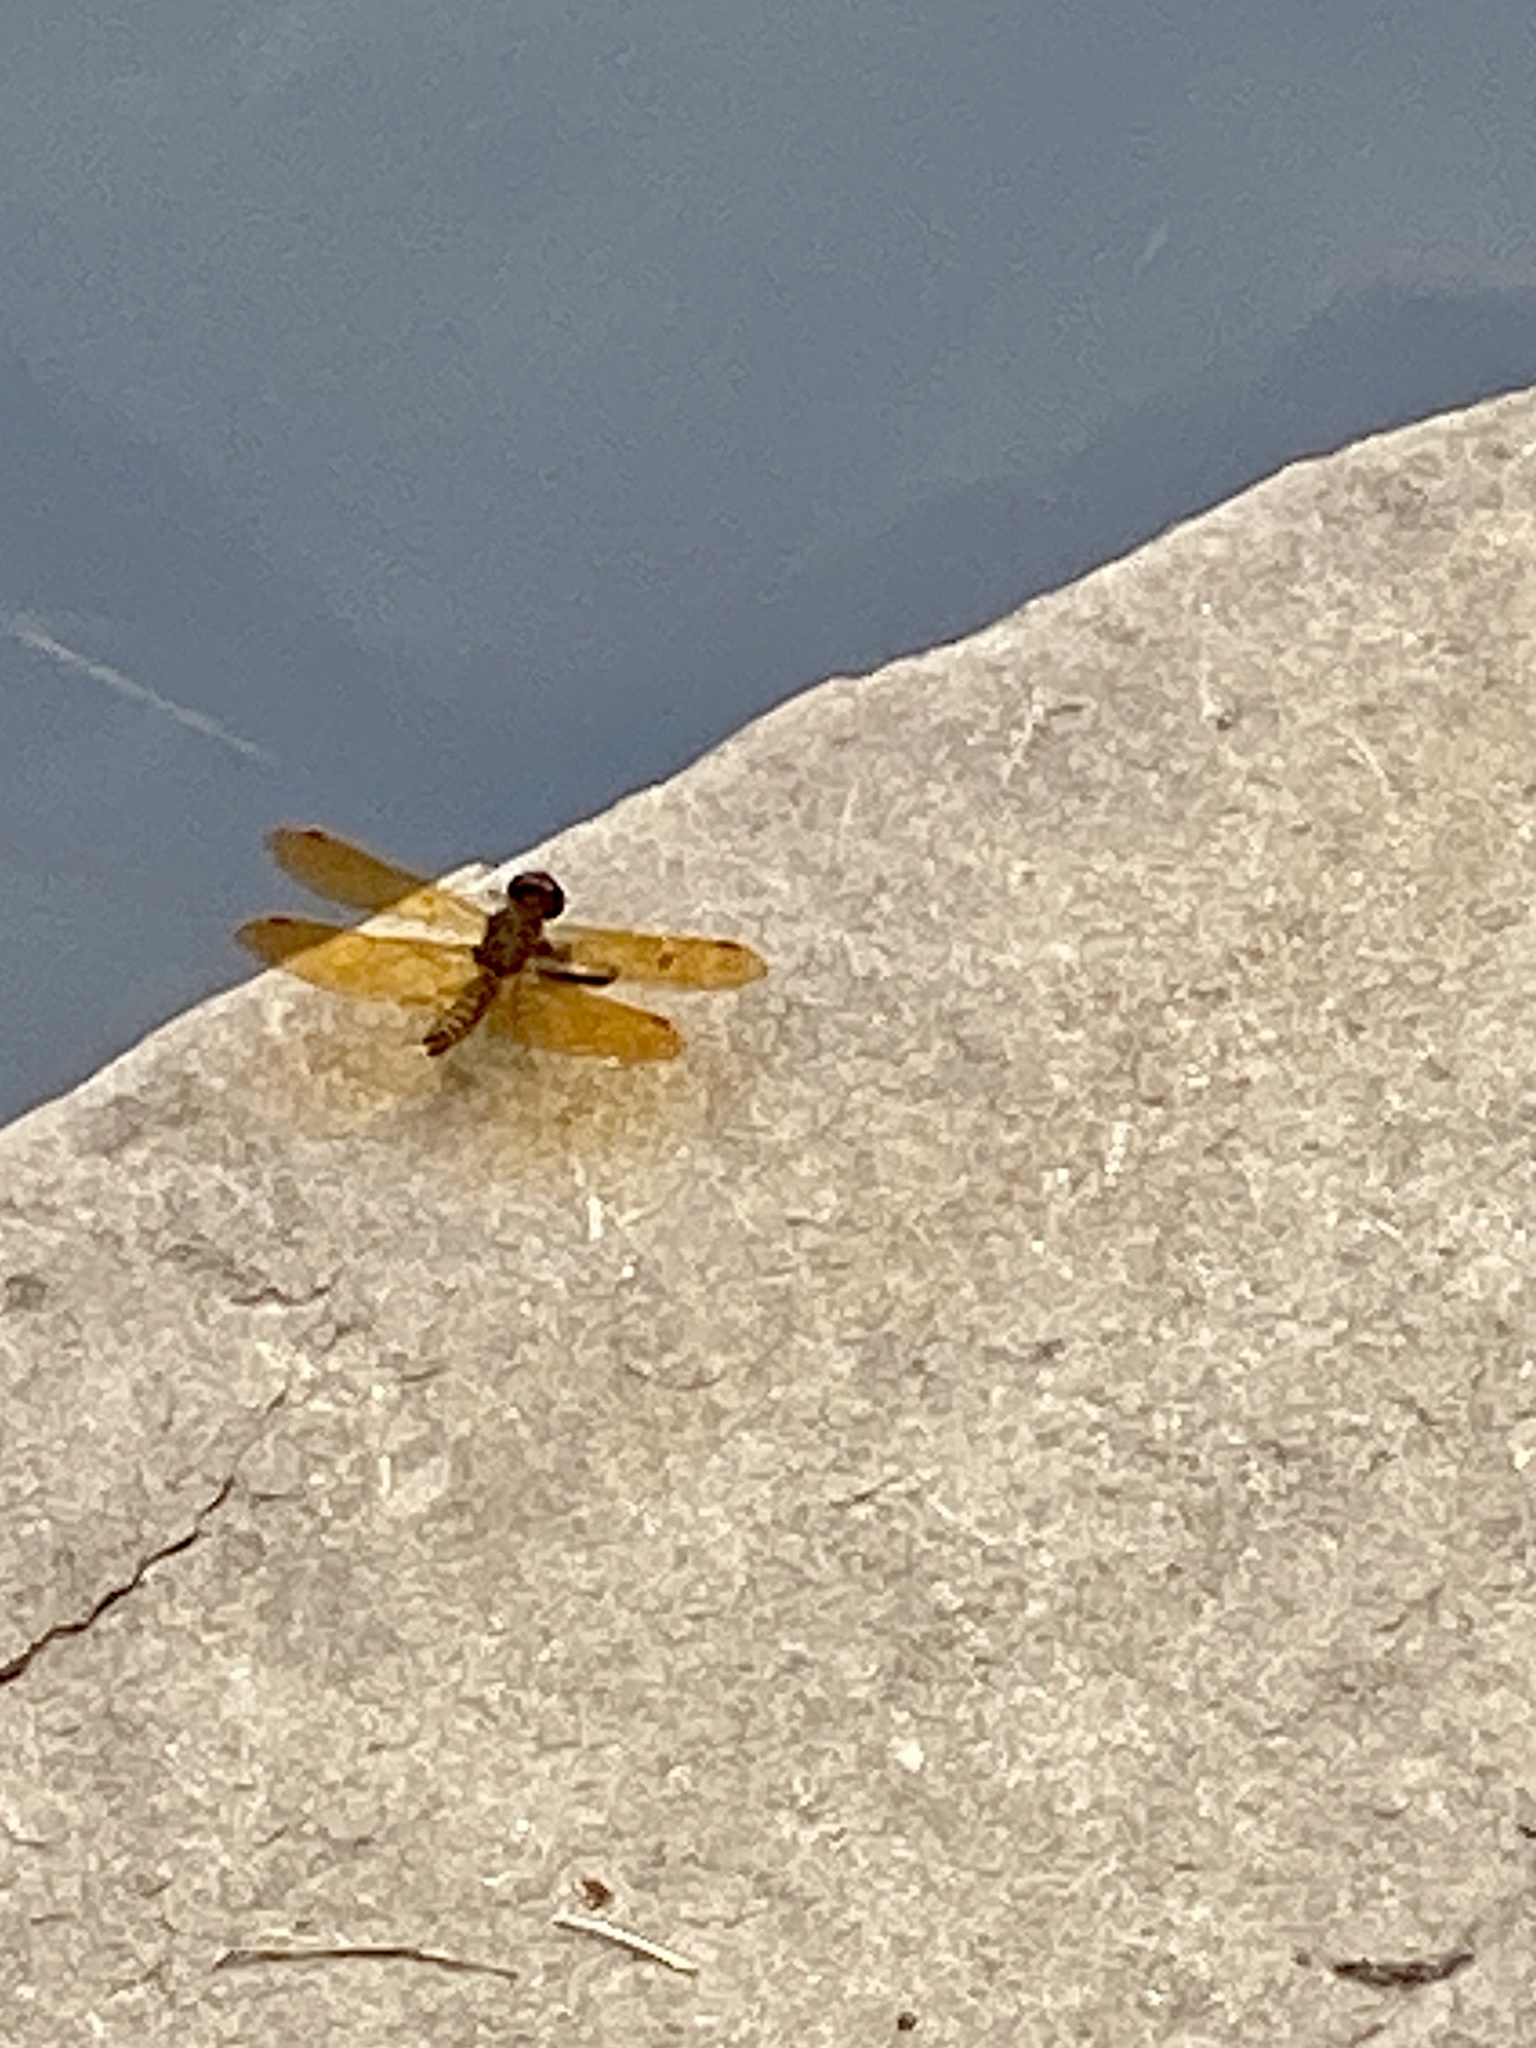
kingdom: Animalia
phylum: Arthropoda
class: Insecta
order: Odonata
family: Libellulidae
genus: Perithemis
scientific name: Perithemis tenera
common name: Eastern amberwing
